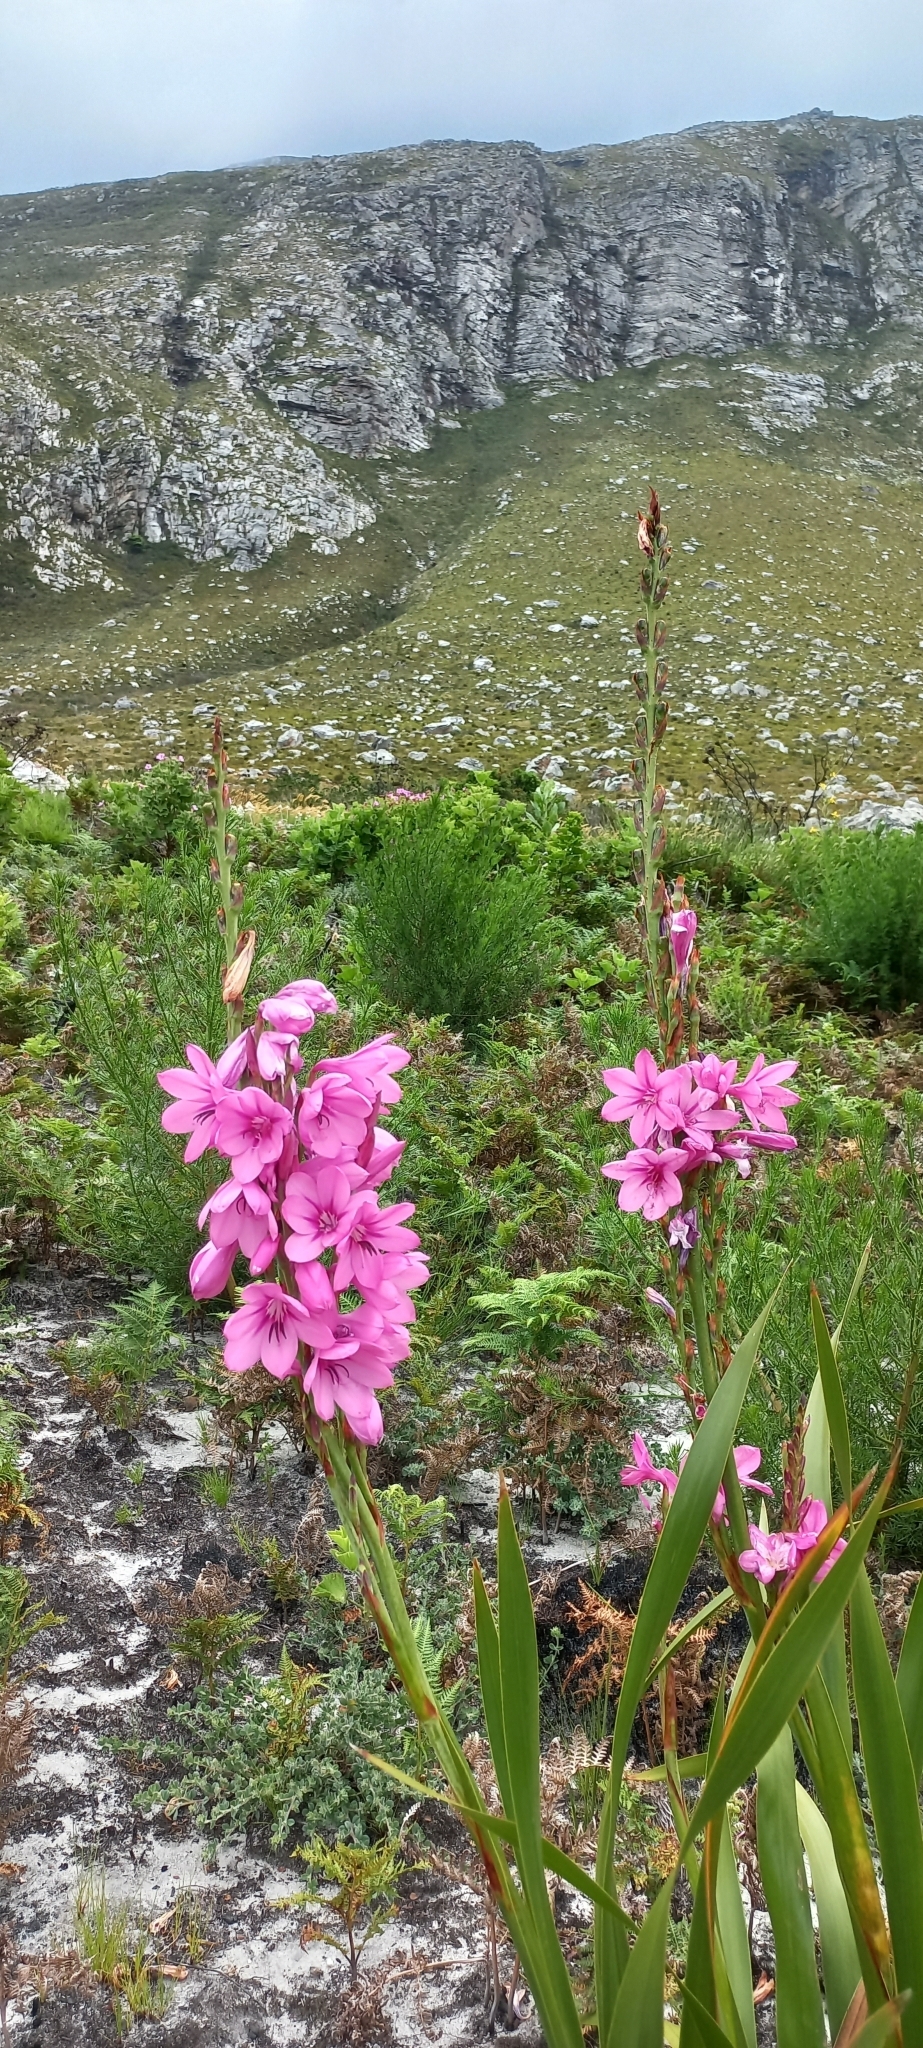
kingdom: Plantae
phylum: Tracheophyta
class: Liliopsida
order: Asparagales
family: Iridaceae
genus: Watsonia
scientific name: Watsonia borbonica
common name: Bugle-lily
